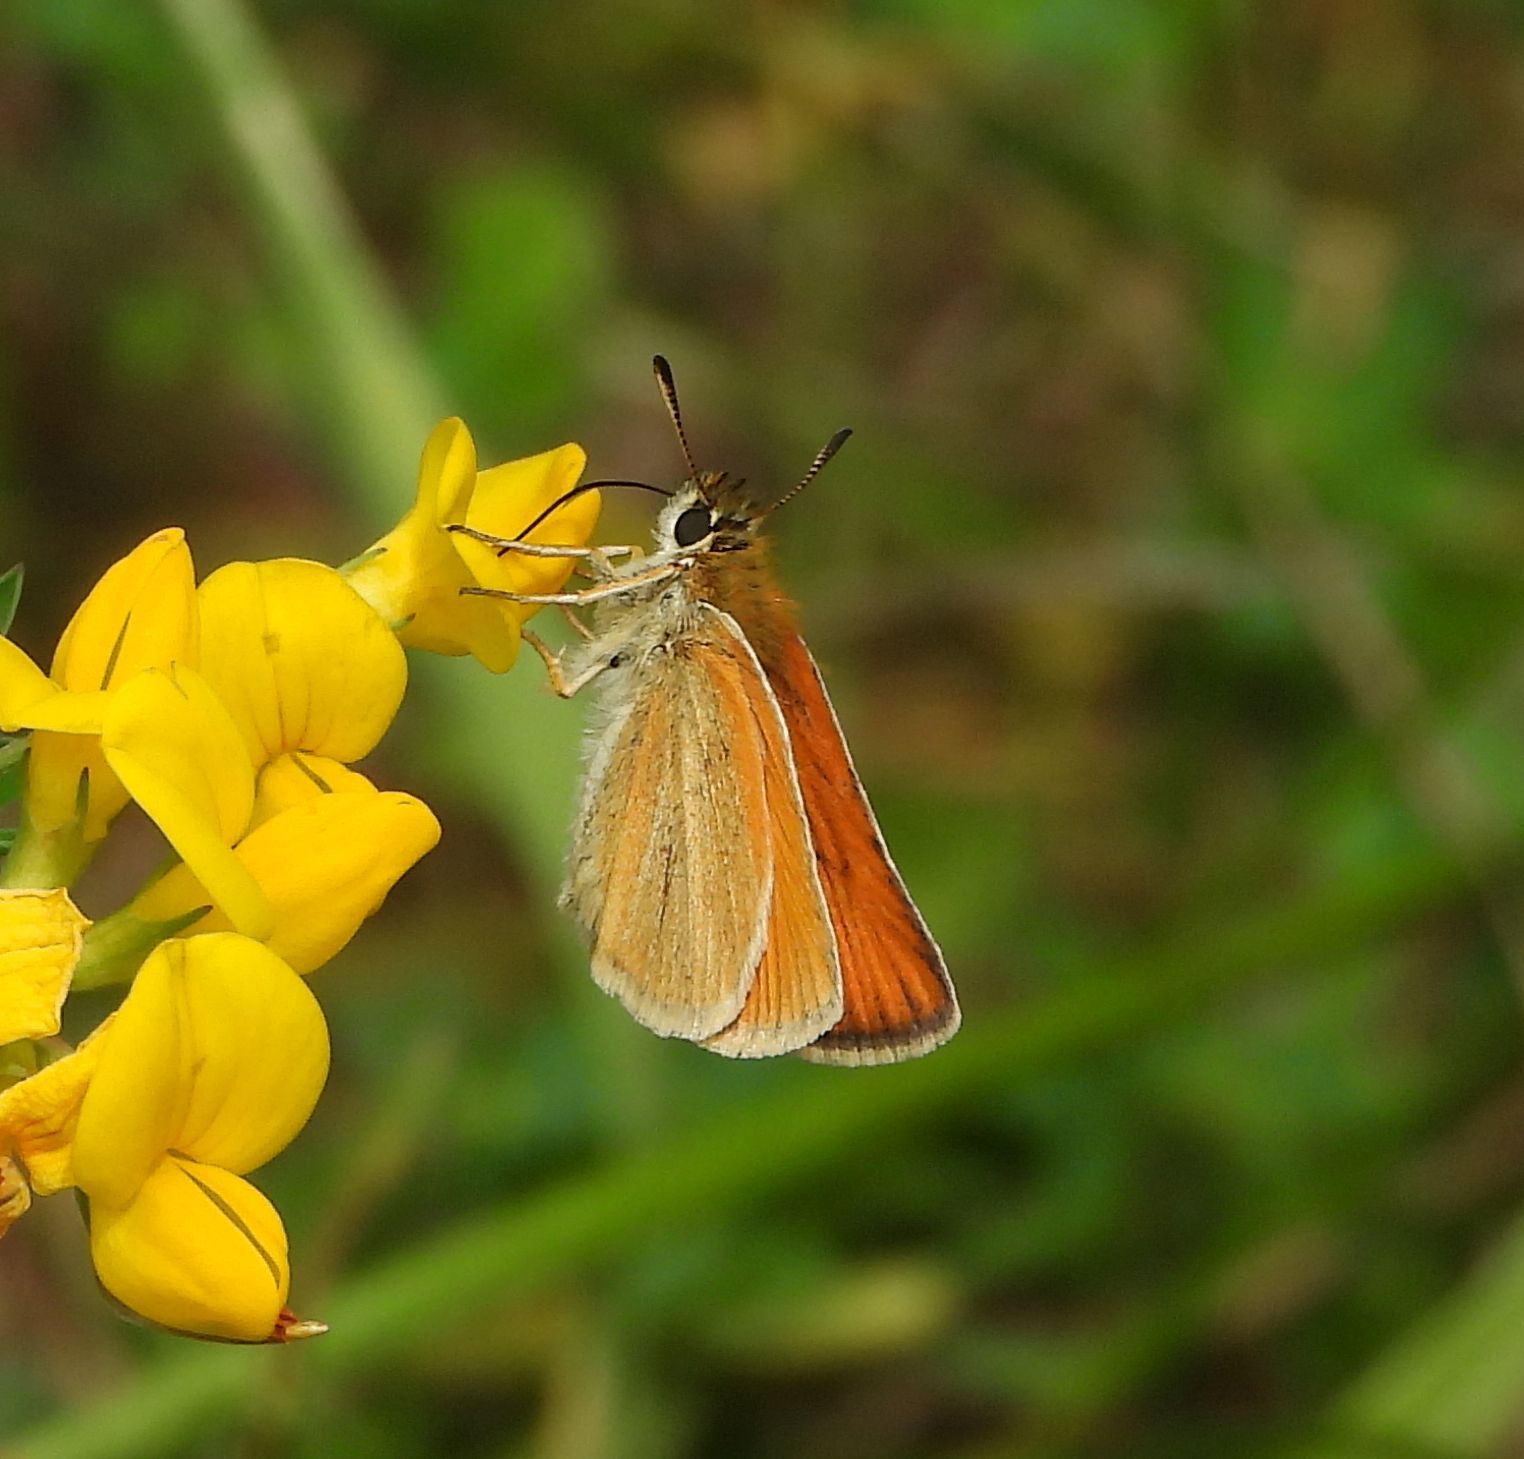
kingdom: Animalia
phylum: Arthropoda
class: Insecta
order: Lepidoptera
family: Hesperiidae
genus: Thymelicus
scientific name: Thymelicus lineola
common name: Essex skipper
